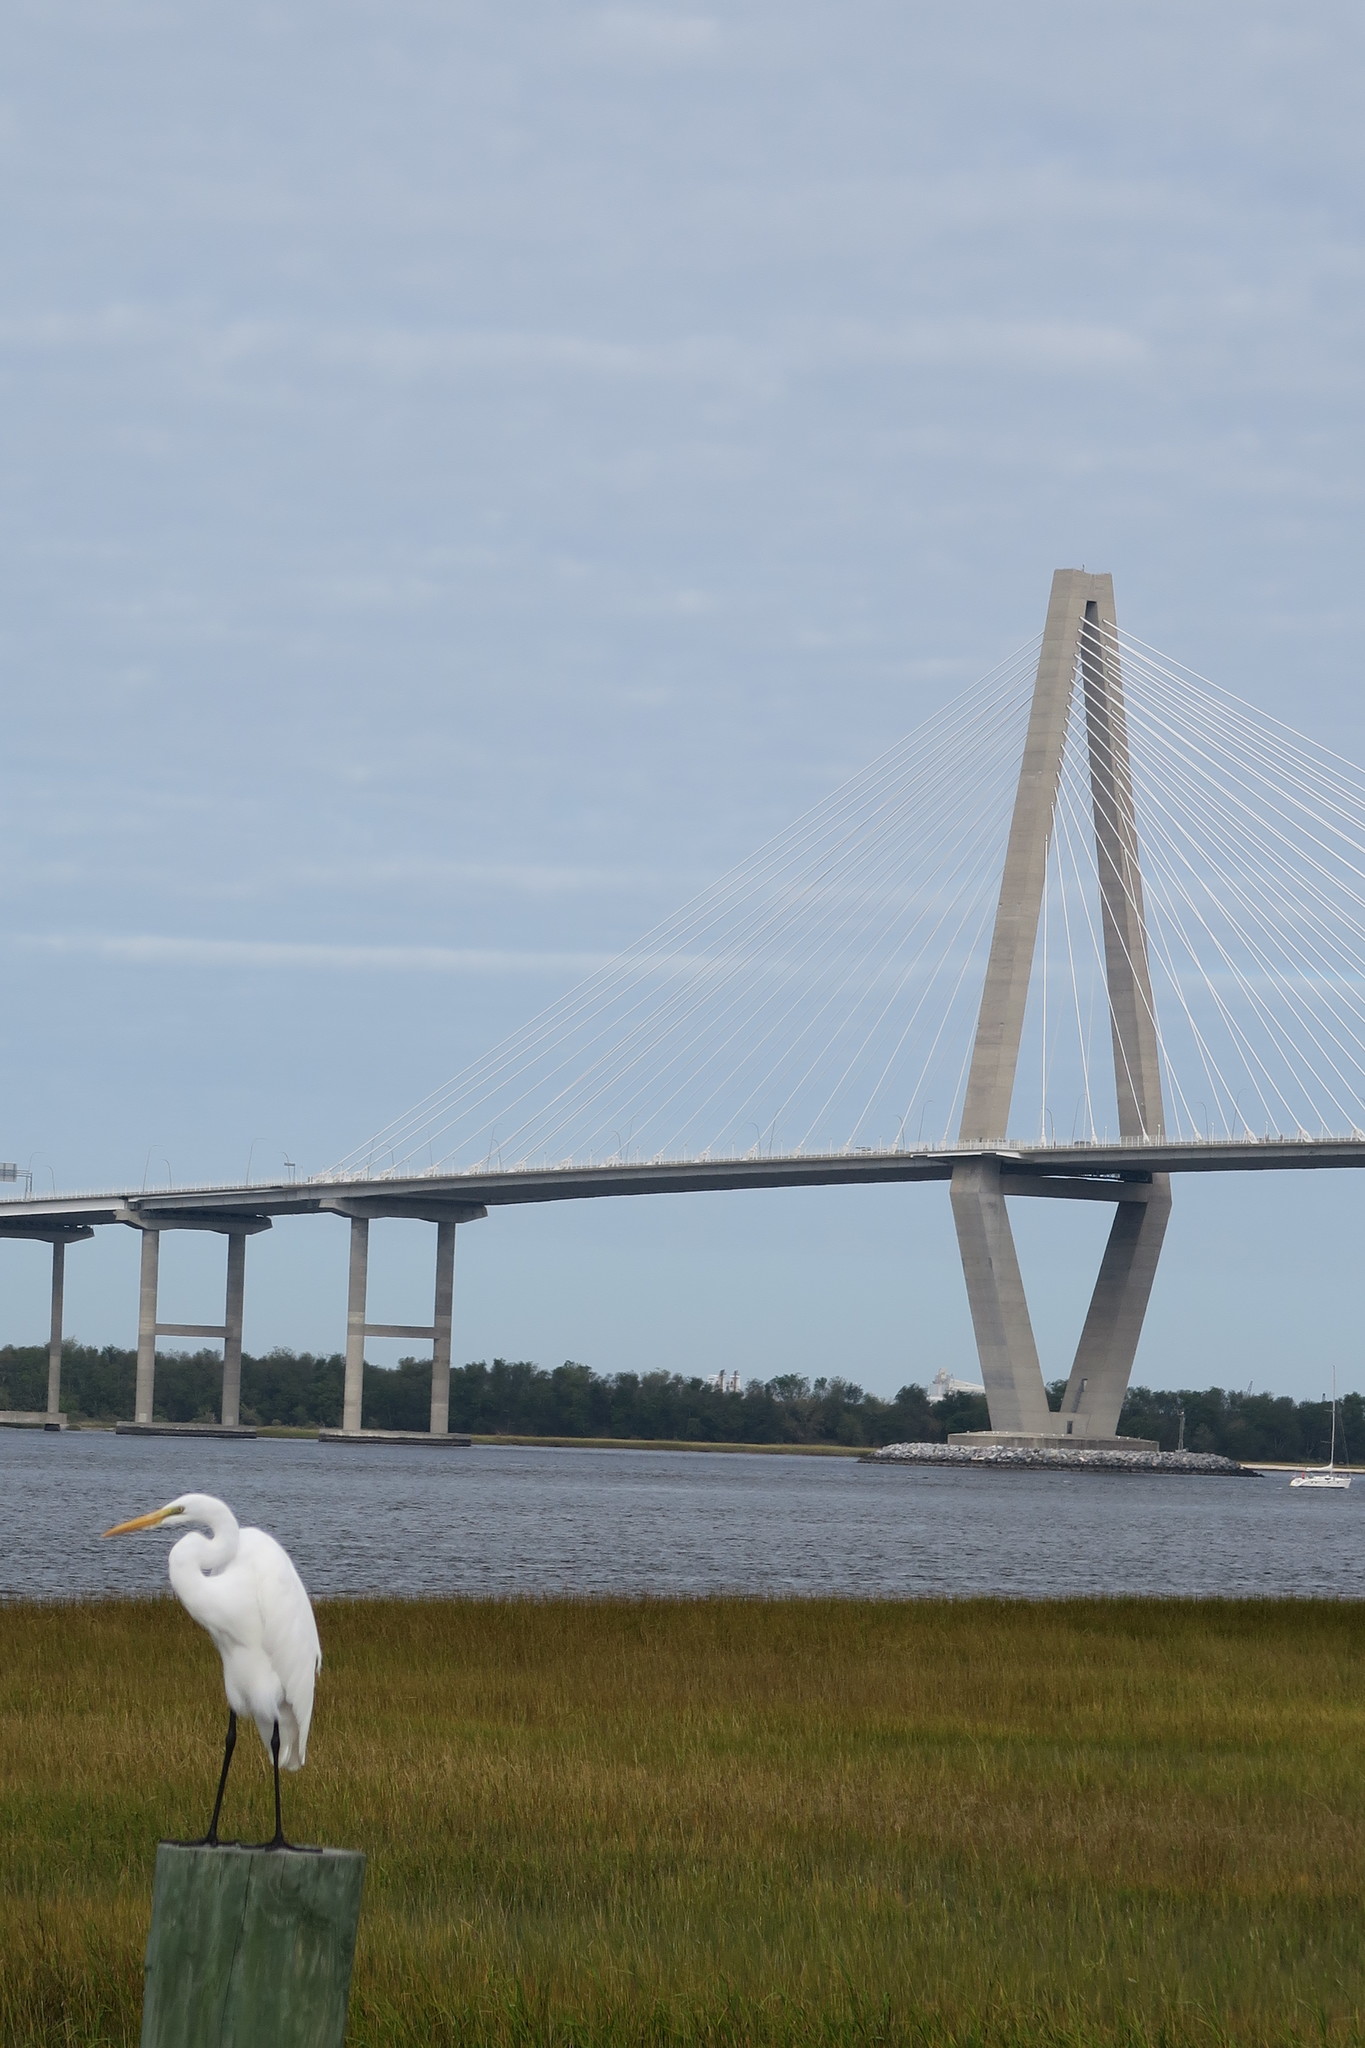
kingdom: Animalia
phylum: Chordata
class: Aves
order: Pelecaniformes
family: Ardeidae
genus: Ardea
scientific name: Ardea alba
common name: Great egret
